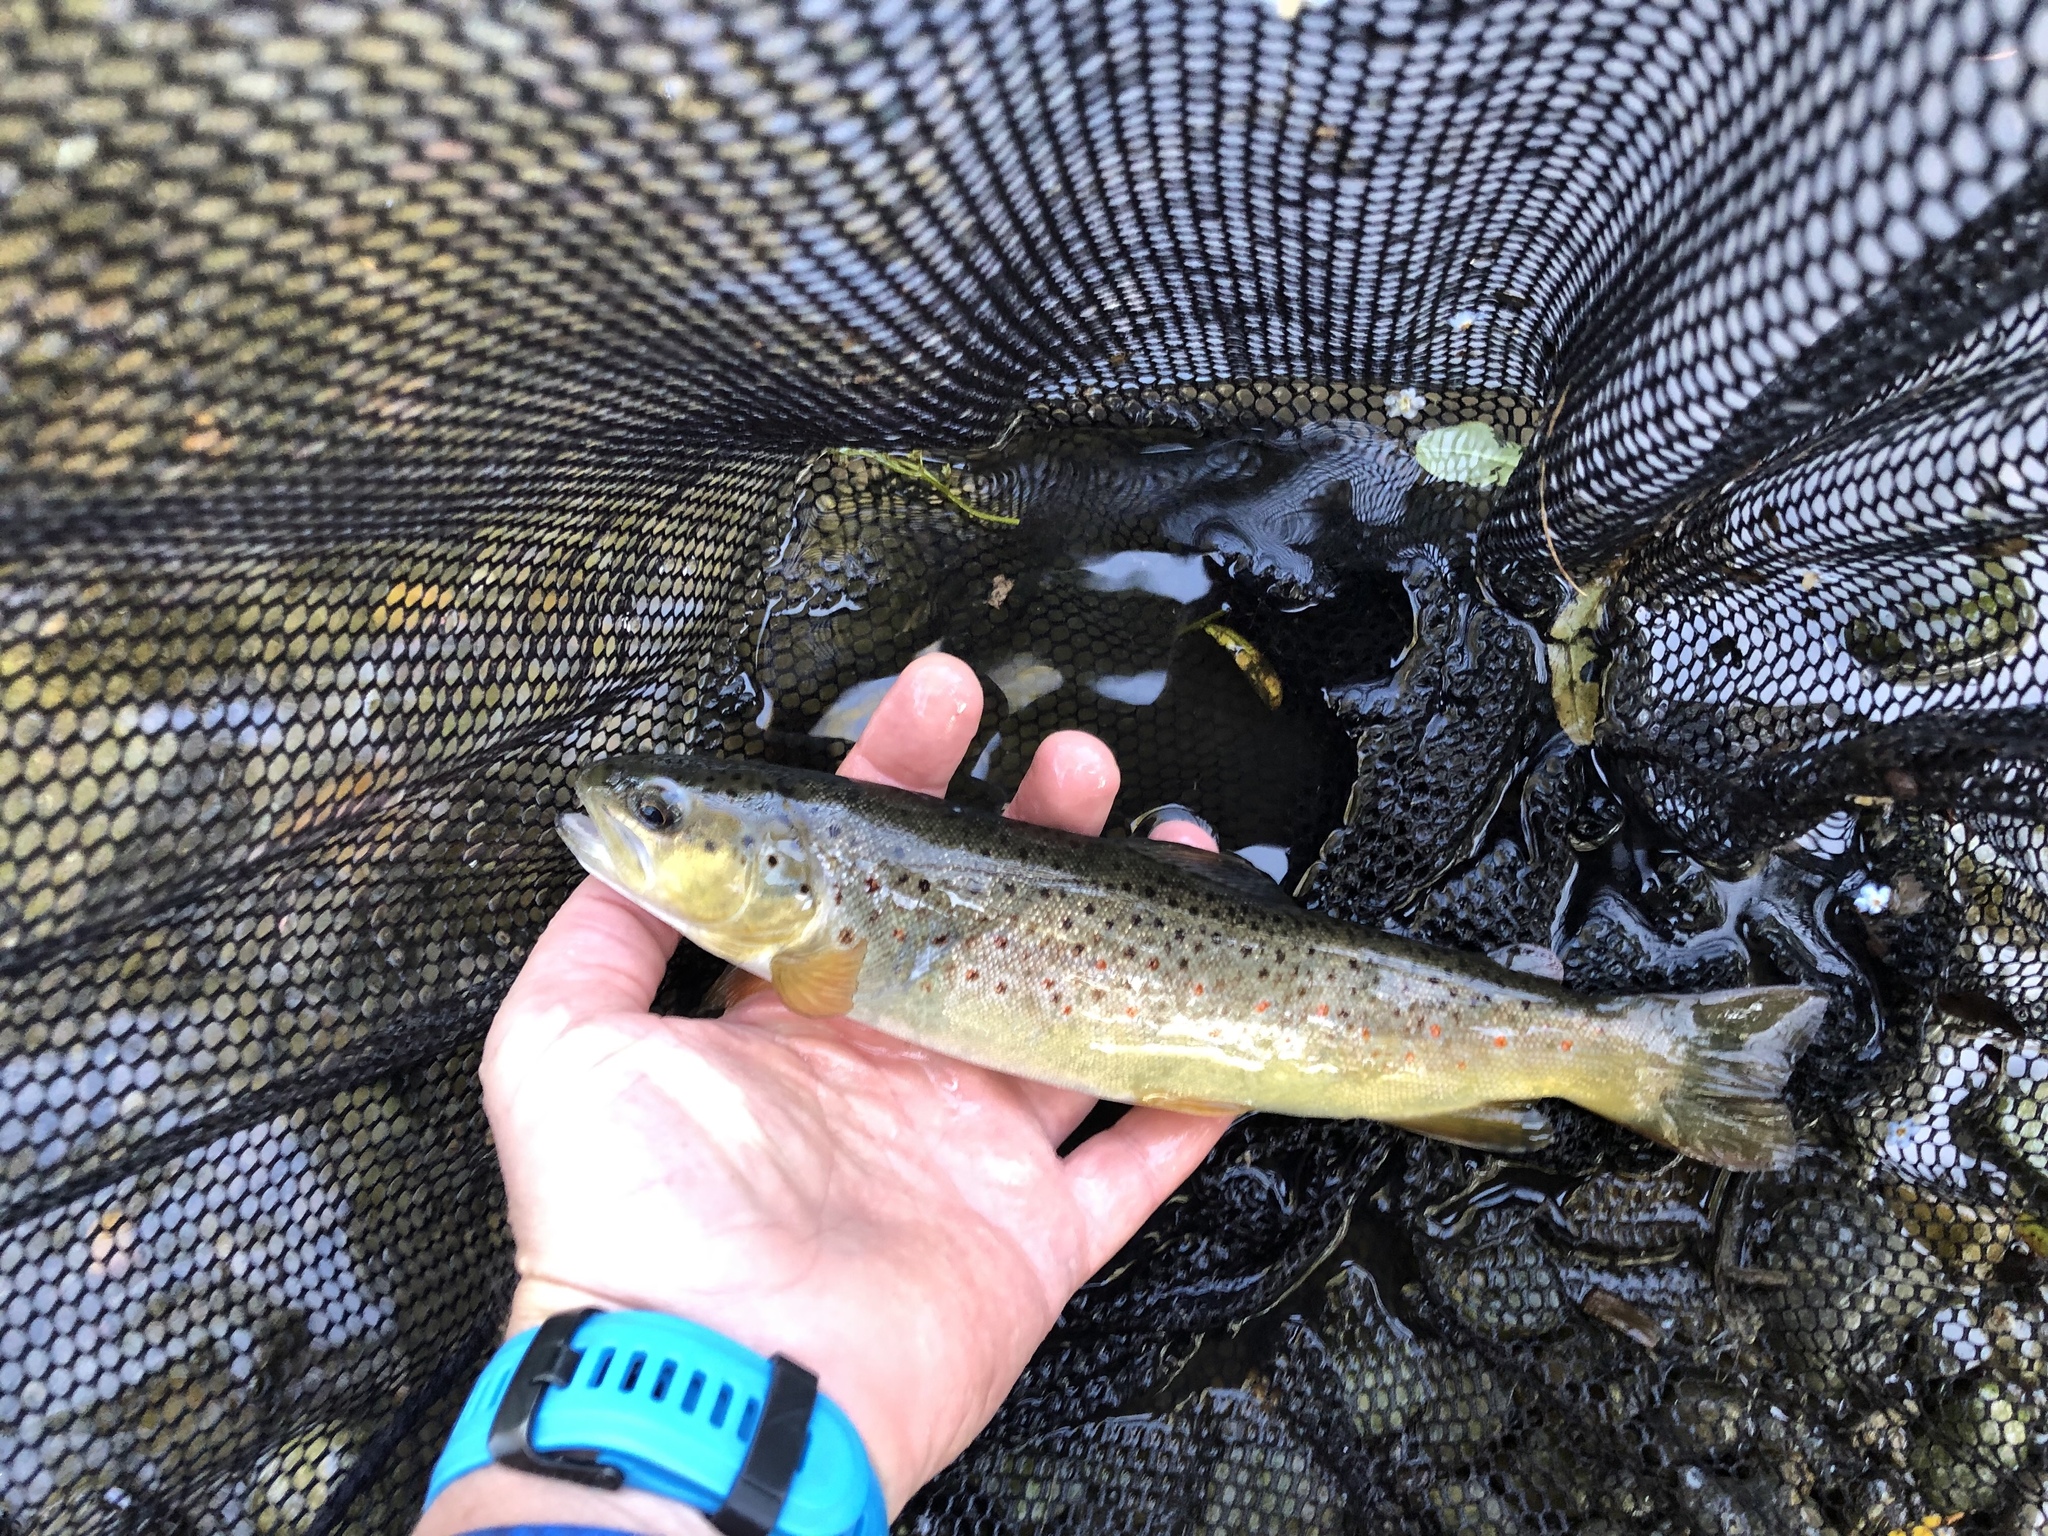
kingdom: Animalia
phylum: Chordata
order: Salmoniformes
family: Salmonidae
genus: Salmo
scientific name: Salmo trutta
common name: Brown trout
